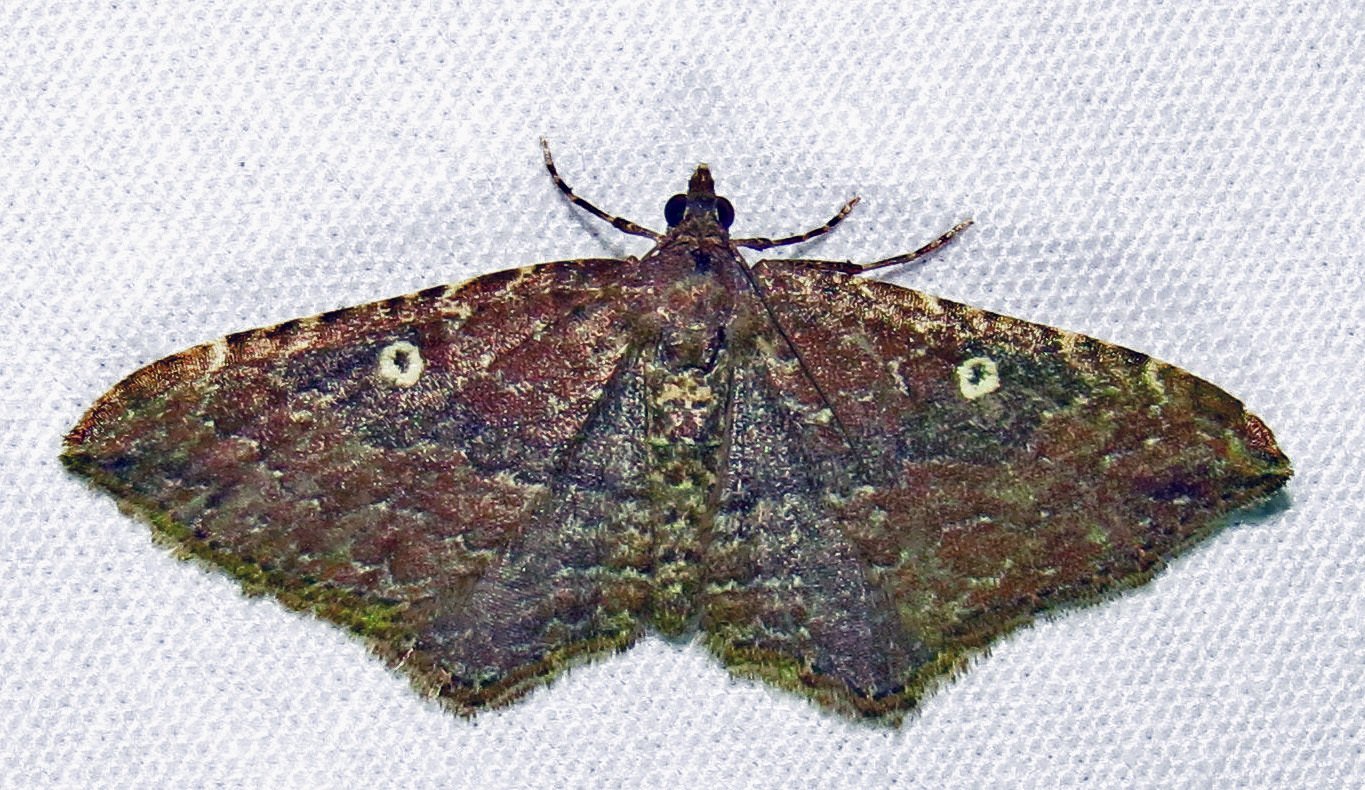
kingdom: Animalia
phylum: Arthropoda
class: Insecta
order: Lepidoptera
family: Geometridae
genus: Orthonama
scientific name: Orthonama obstipata
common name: The gem
